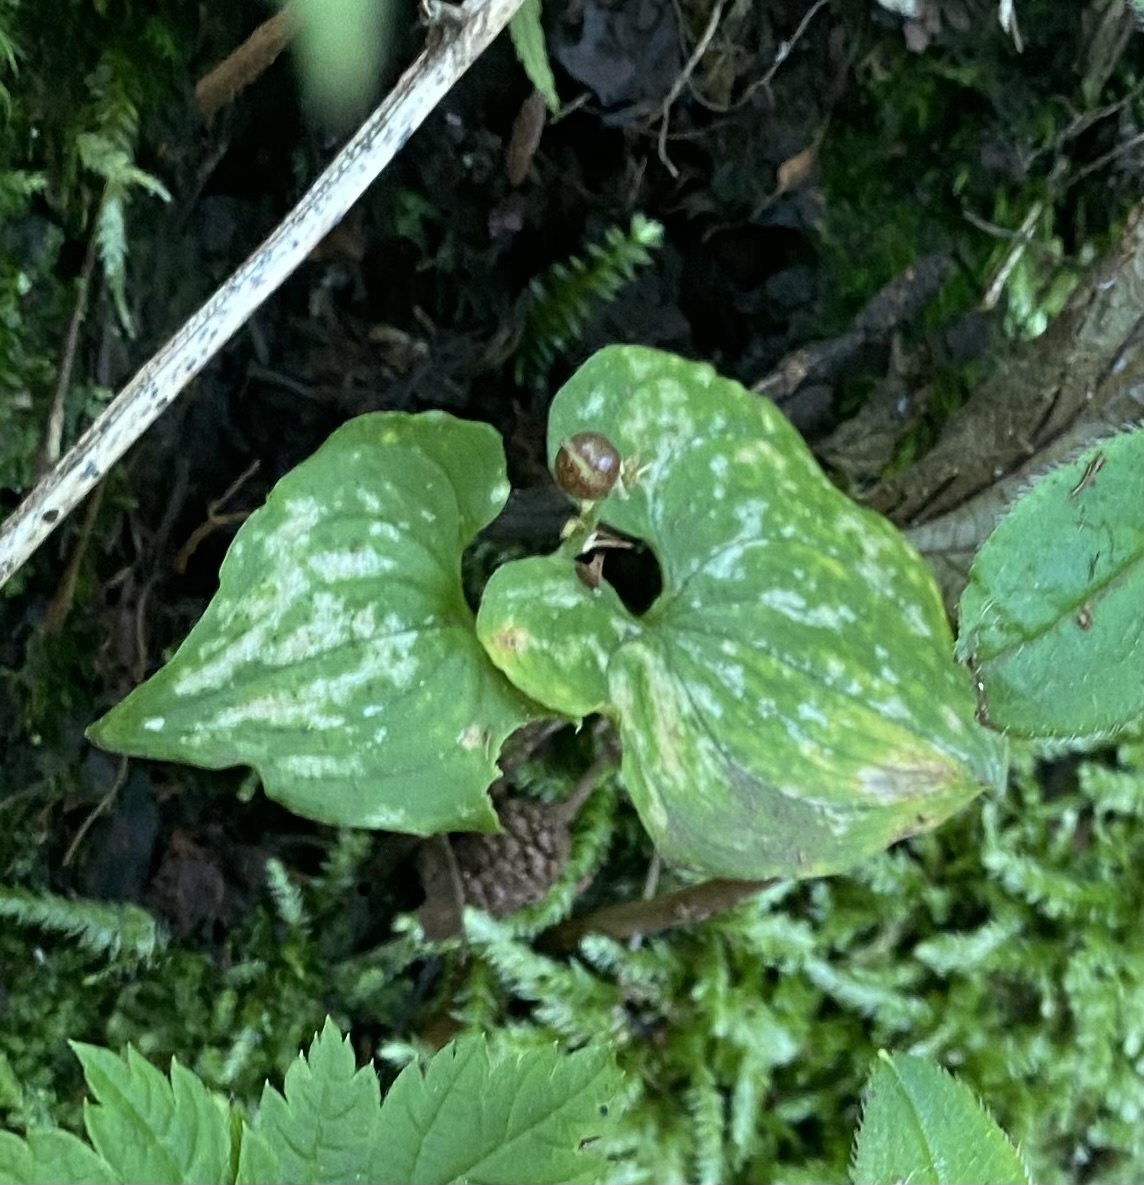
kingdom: Plantae
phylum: Tracheophyta
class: Liliopsida
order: Asparagales
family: Asparagaceae
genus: Maianthemum
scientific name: Maianthemum dilatatum
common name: False lily-of-the-valley
